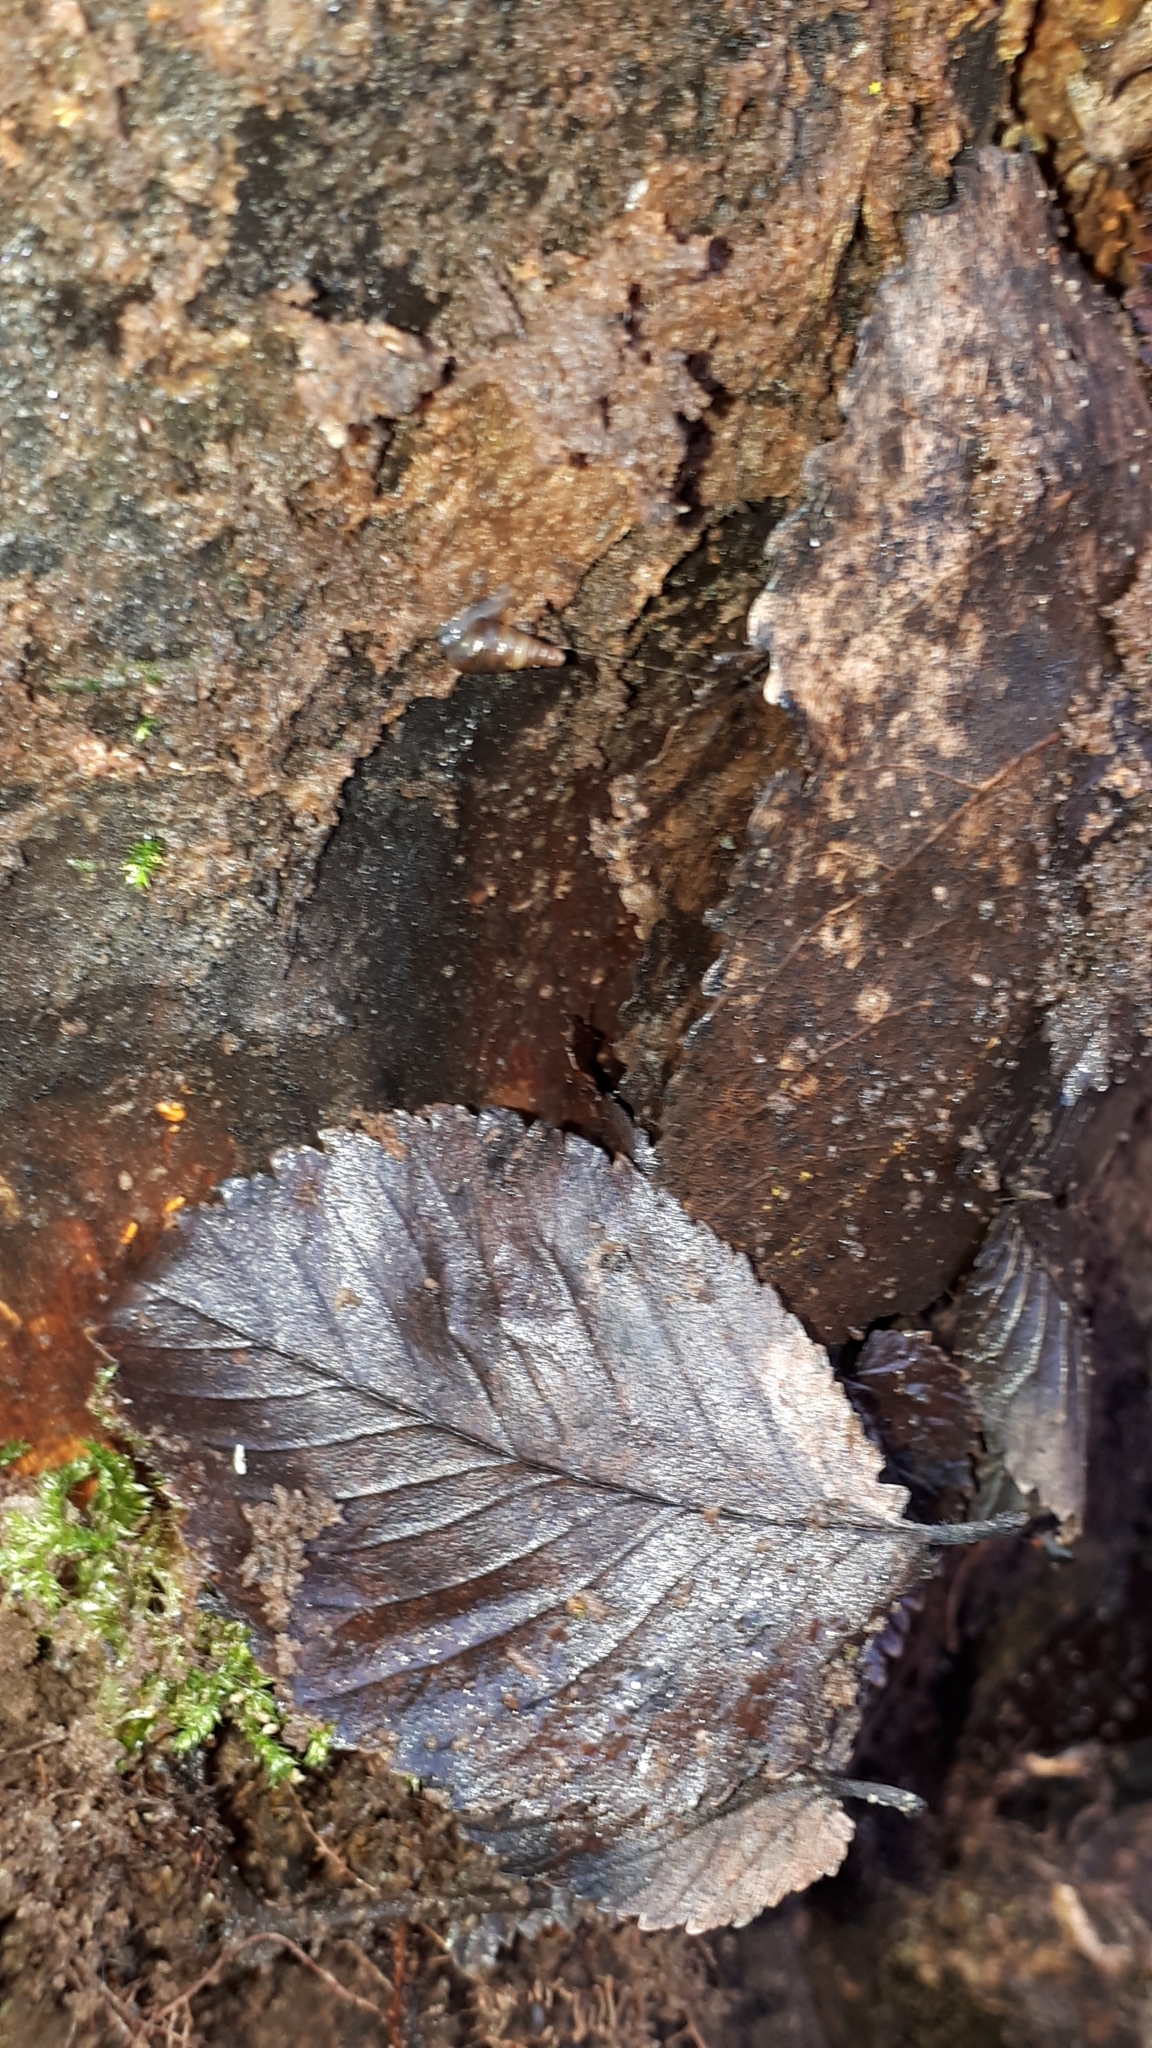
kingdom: Animalia
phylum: Mollusca
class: Gastropoda
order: Stylommatophora
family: Clausiliidae
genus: Cochlodina
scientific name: Cochlodina laminata
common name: Plaited door snail
